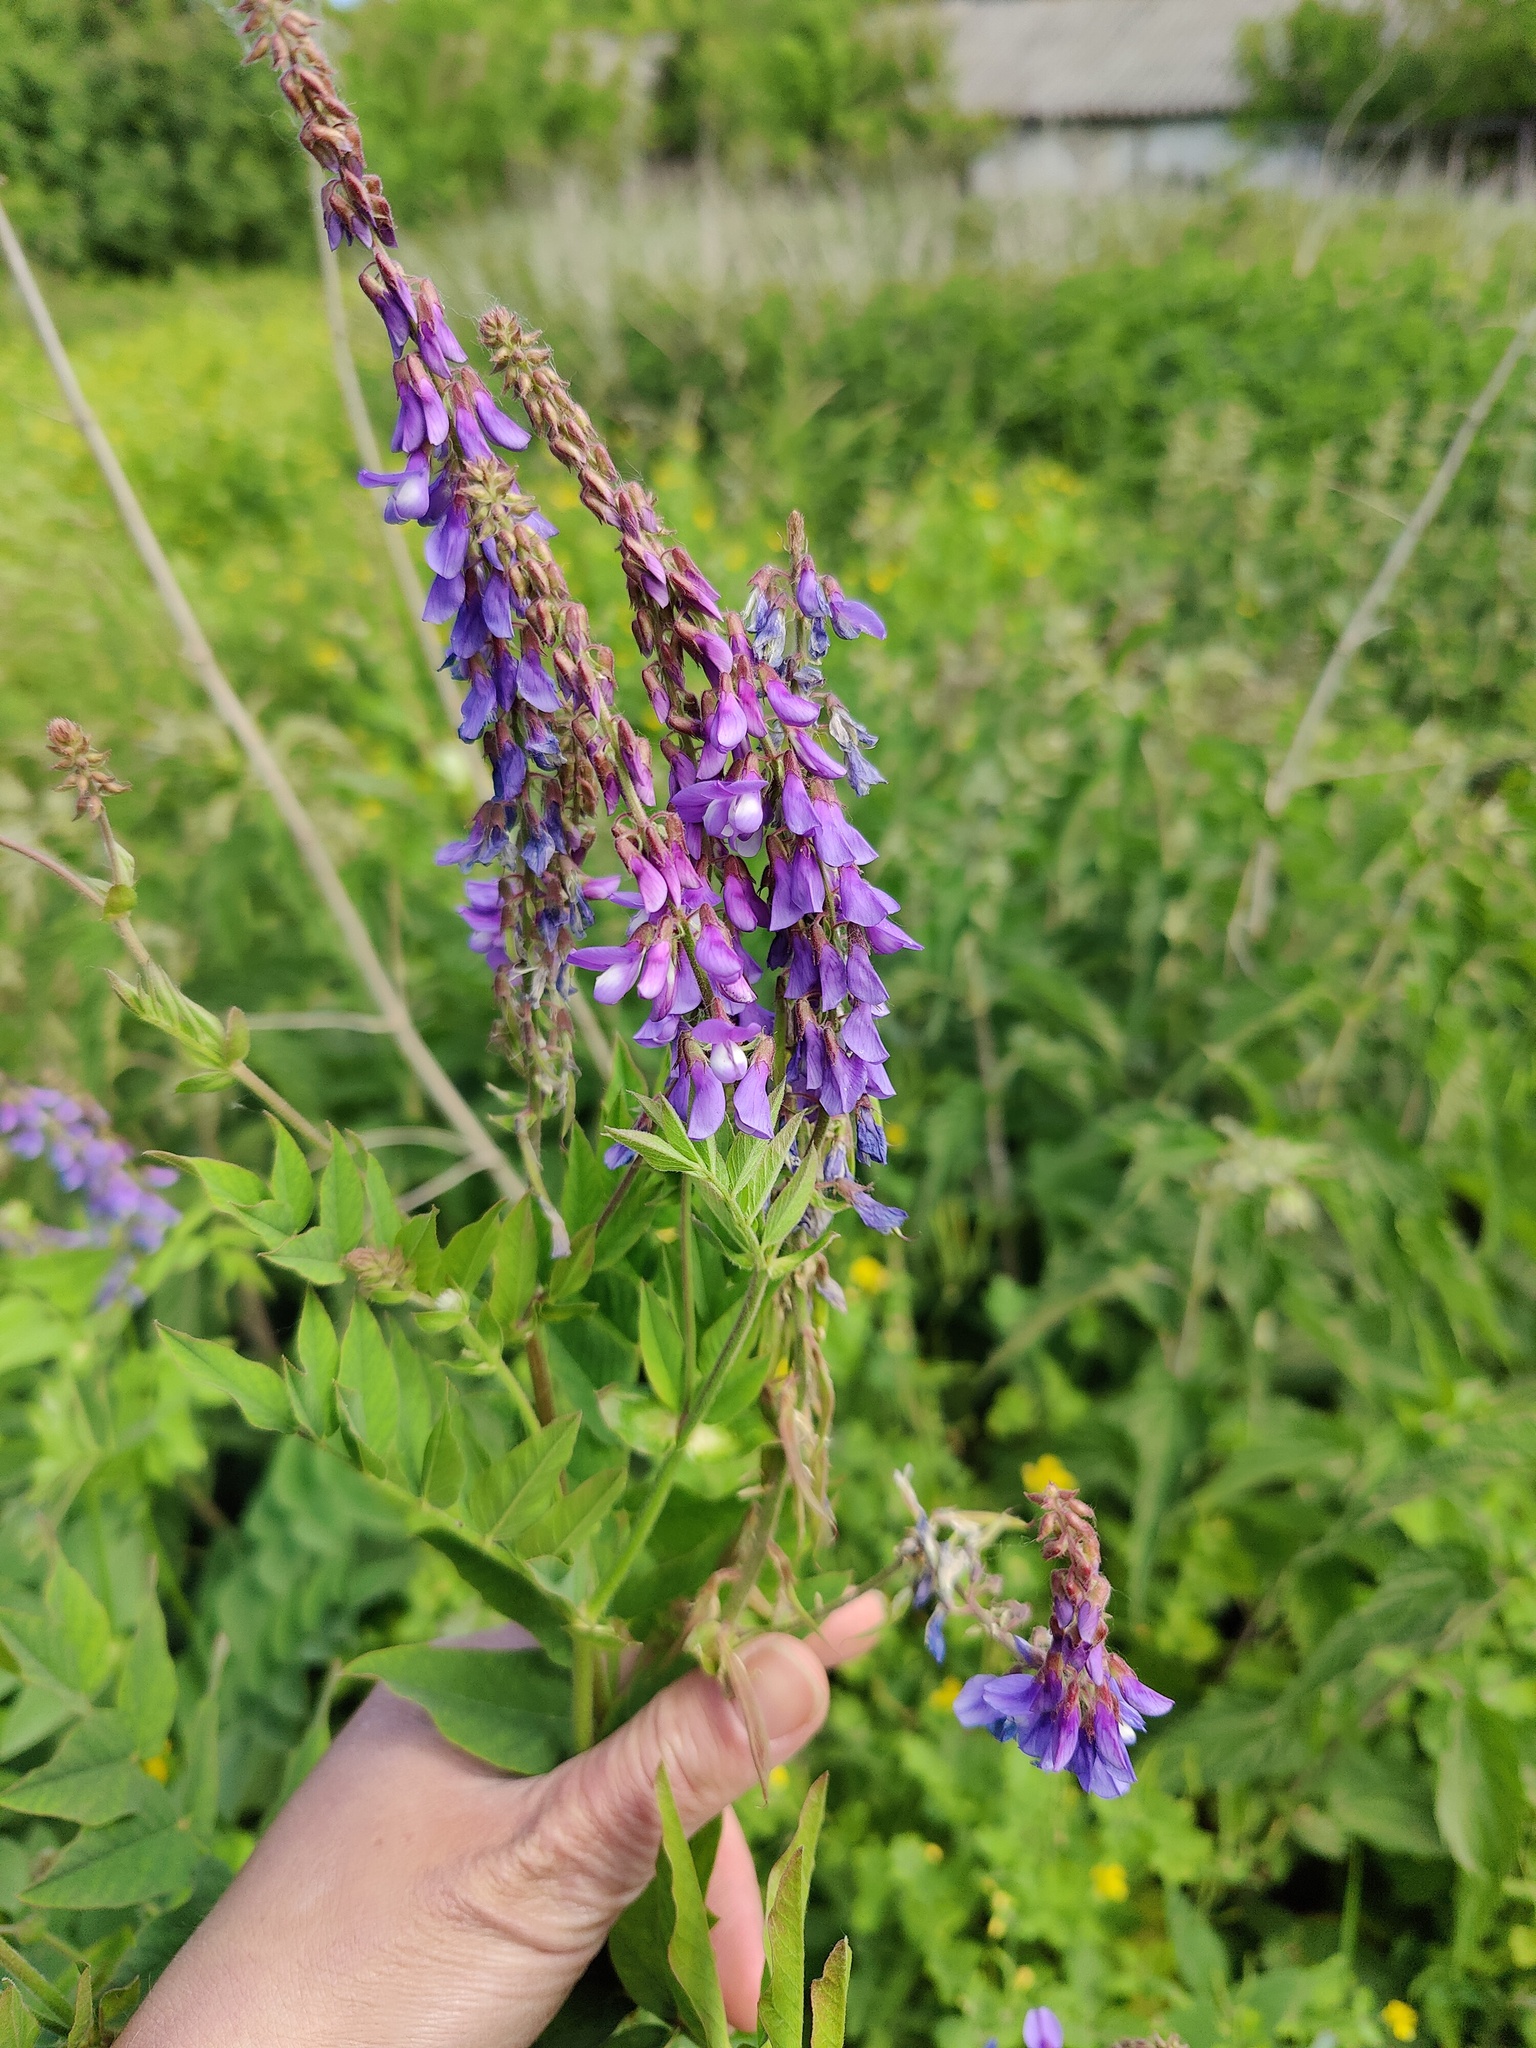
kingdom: Plantae
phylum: Tracheophyta
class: Magnoliopsida
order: Fabales
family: Fabaceae
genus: Galega
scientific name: Galega orientalis
